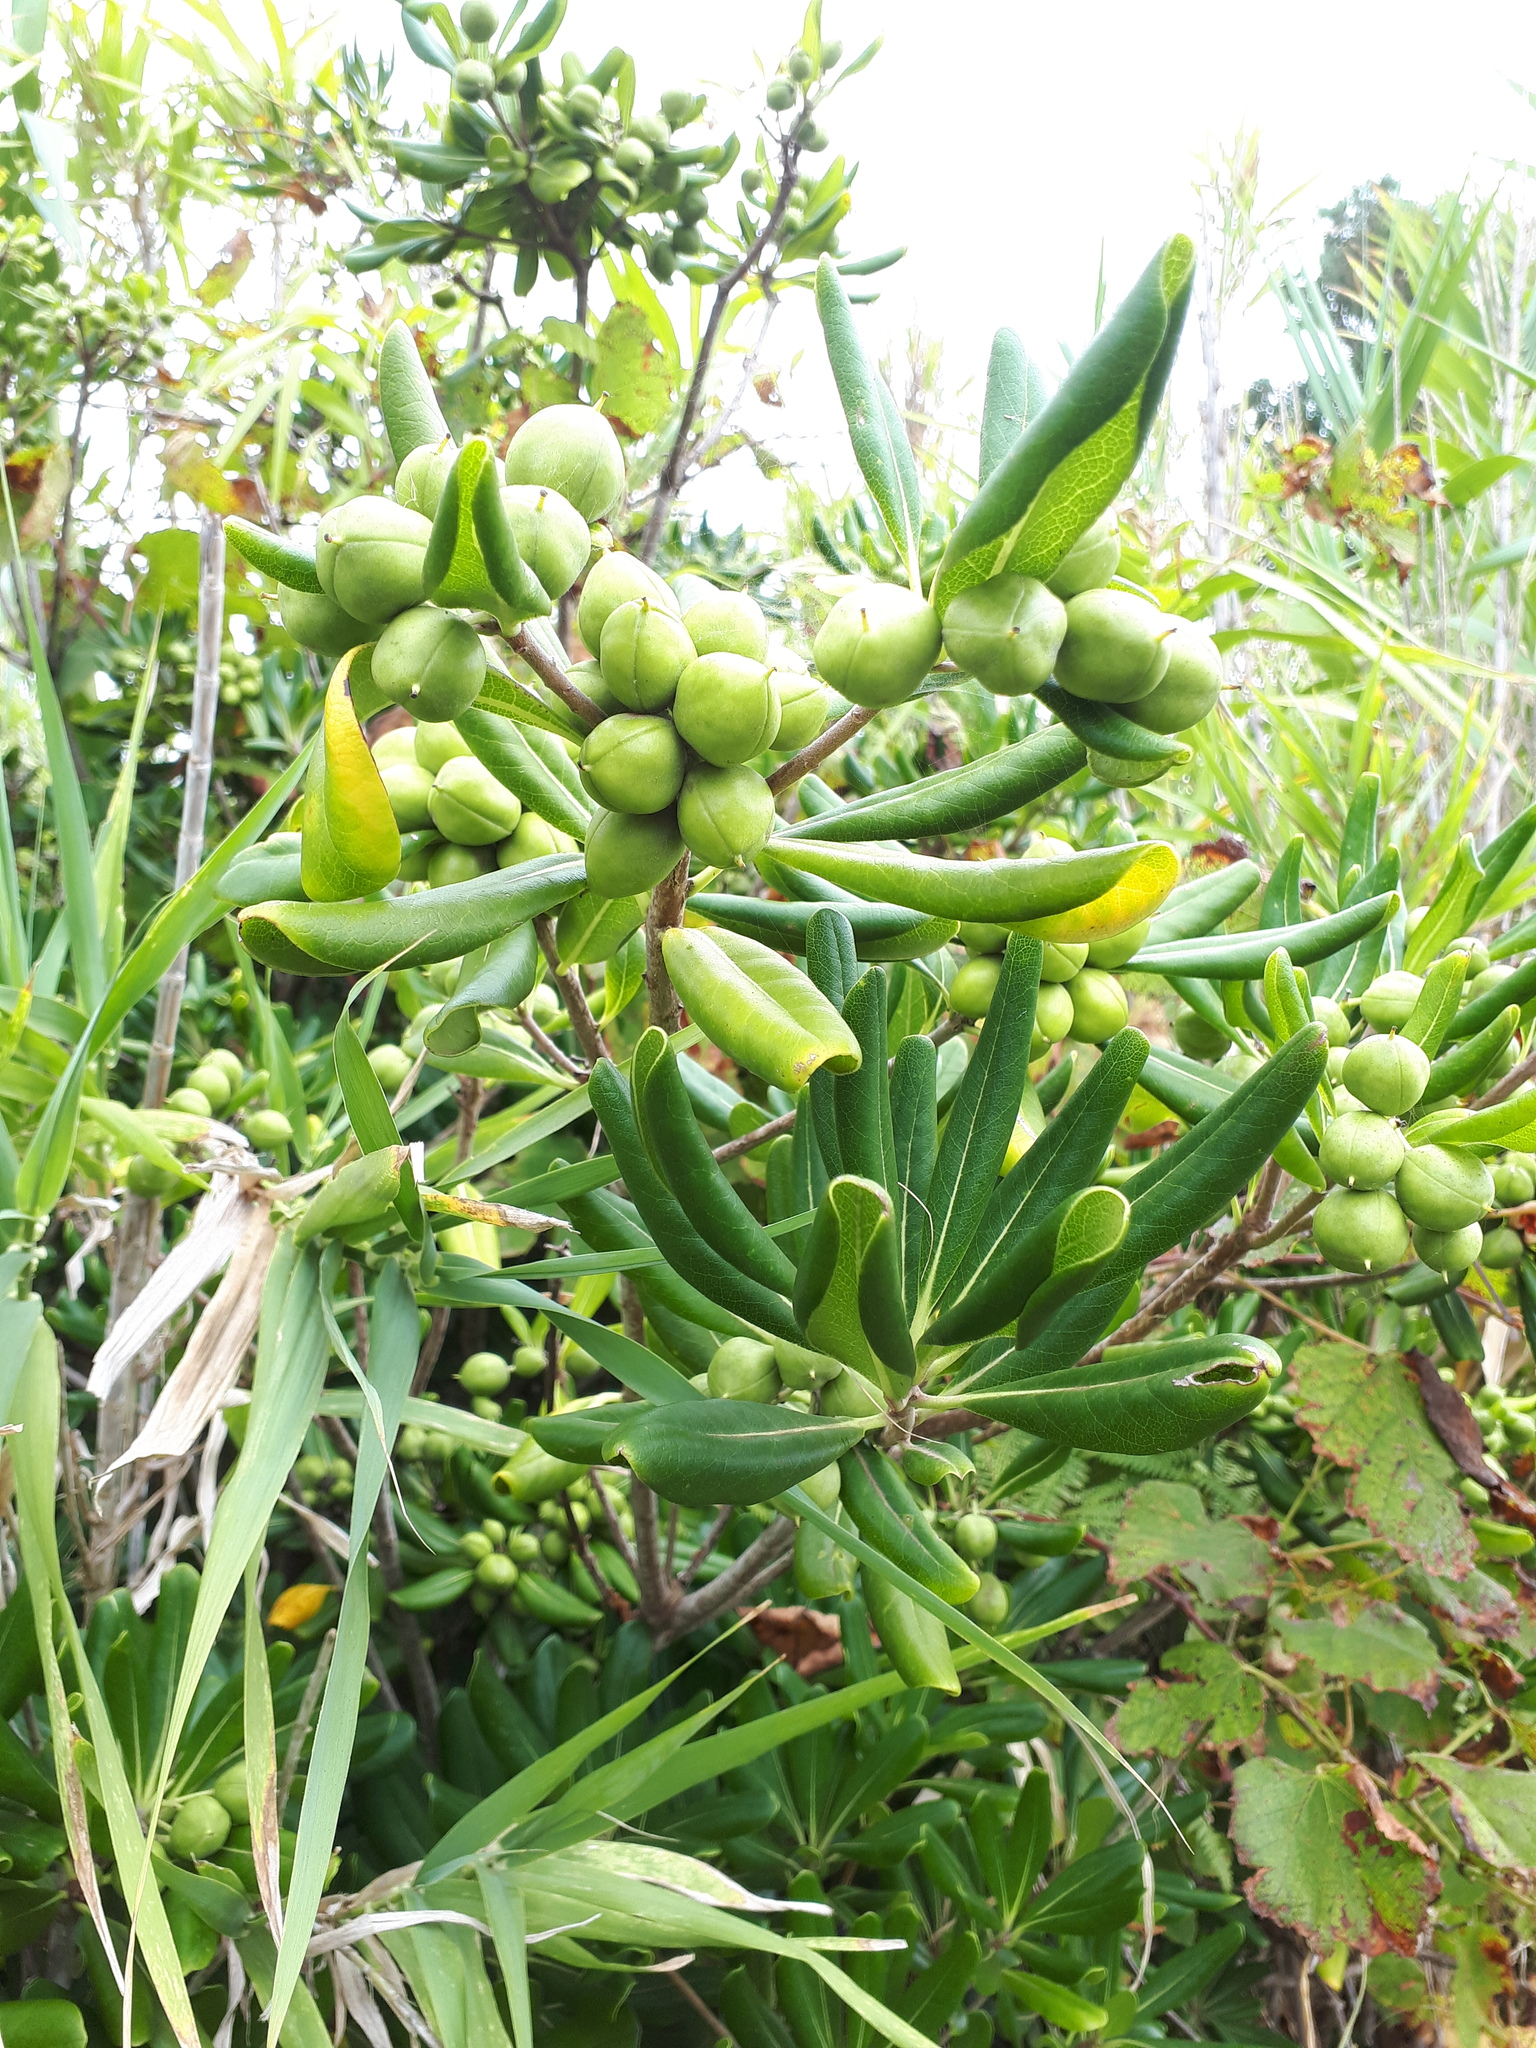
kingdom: Plantae
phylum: Tracheophyta
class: Magnoliopsida
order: Apiales
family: Pittosporaceae
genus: Pittosporum
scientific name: Pittosporum tobira
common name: Japanese cheesewood
